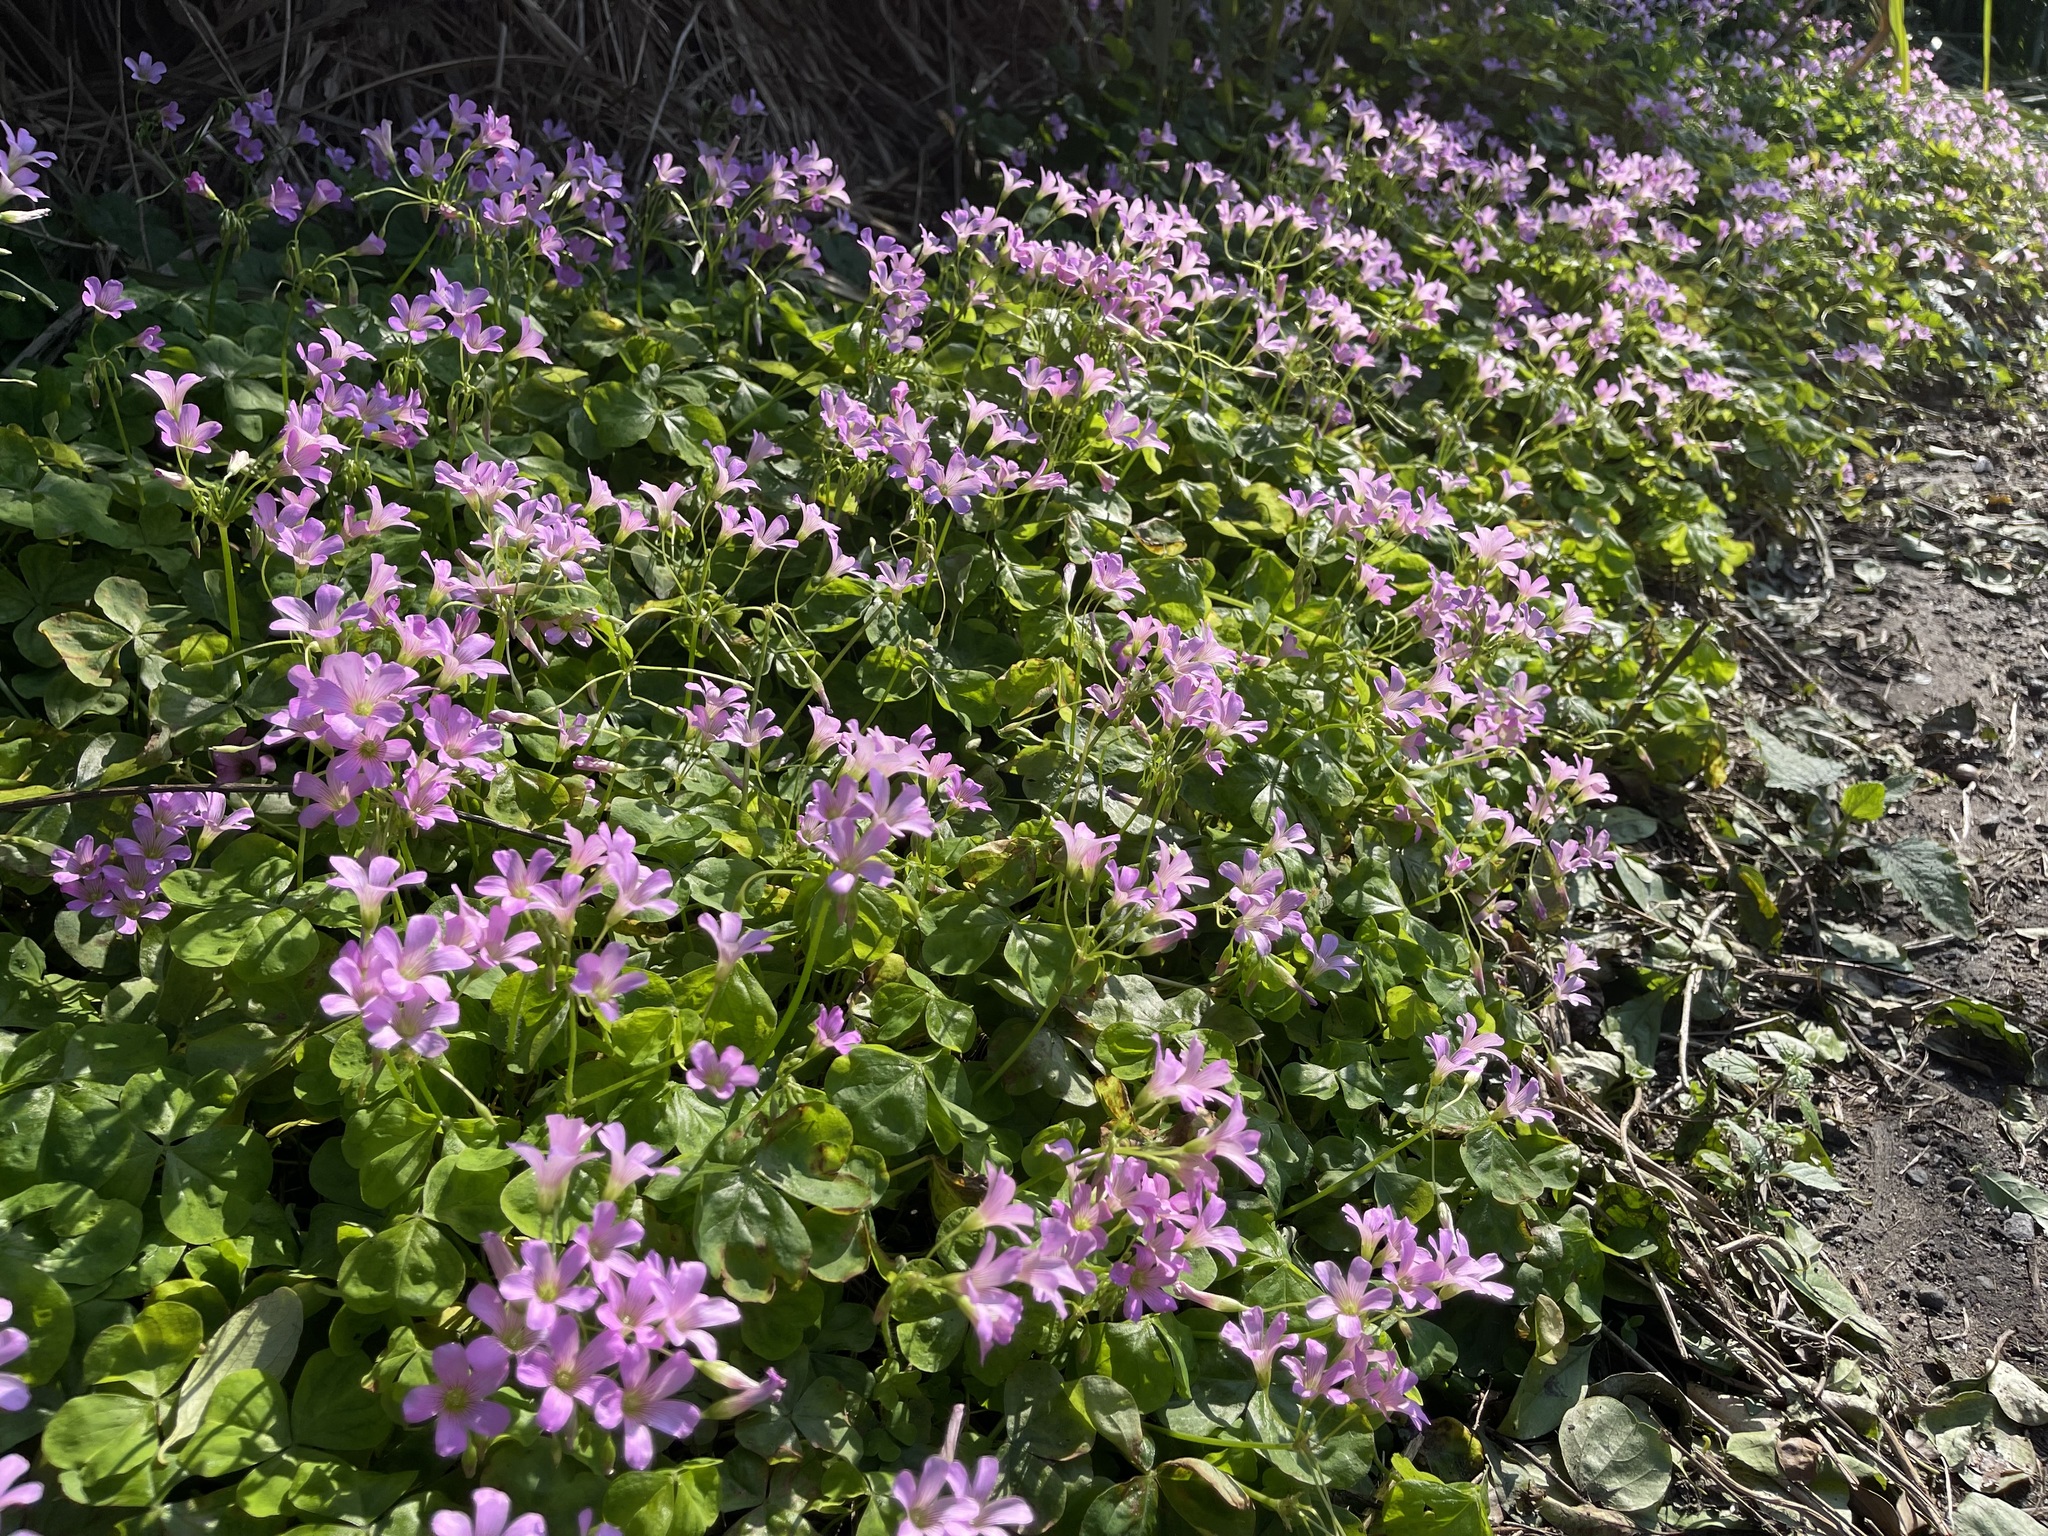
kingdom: Plantae
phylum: Tracheophyta
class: Magnoliopsida
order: Oxalidales
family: Oxalidaceae
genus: Oxalis
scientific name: Oxalis debilis
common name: Large-flowered pink-sorrel
